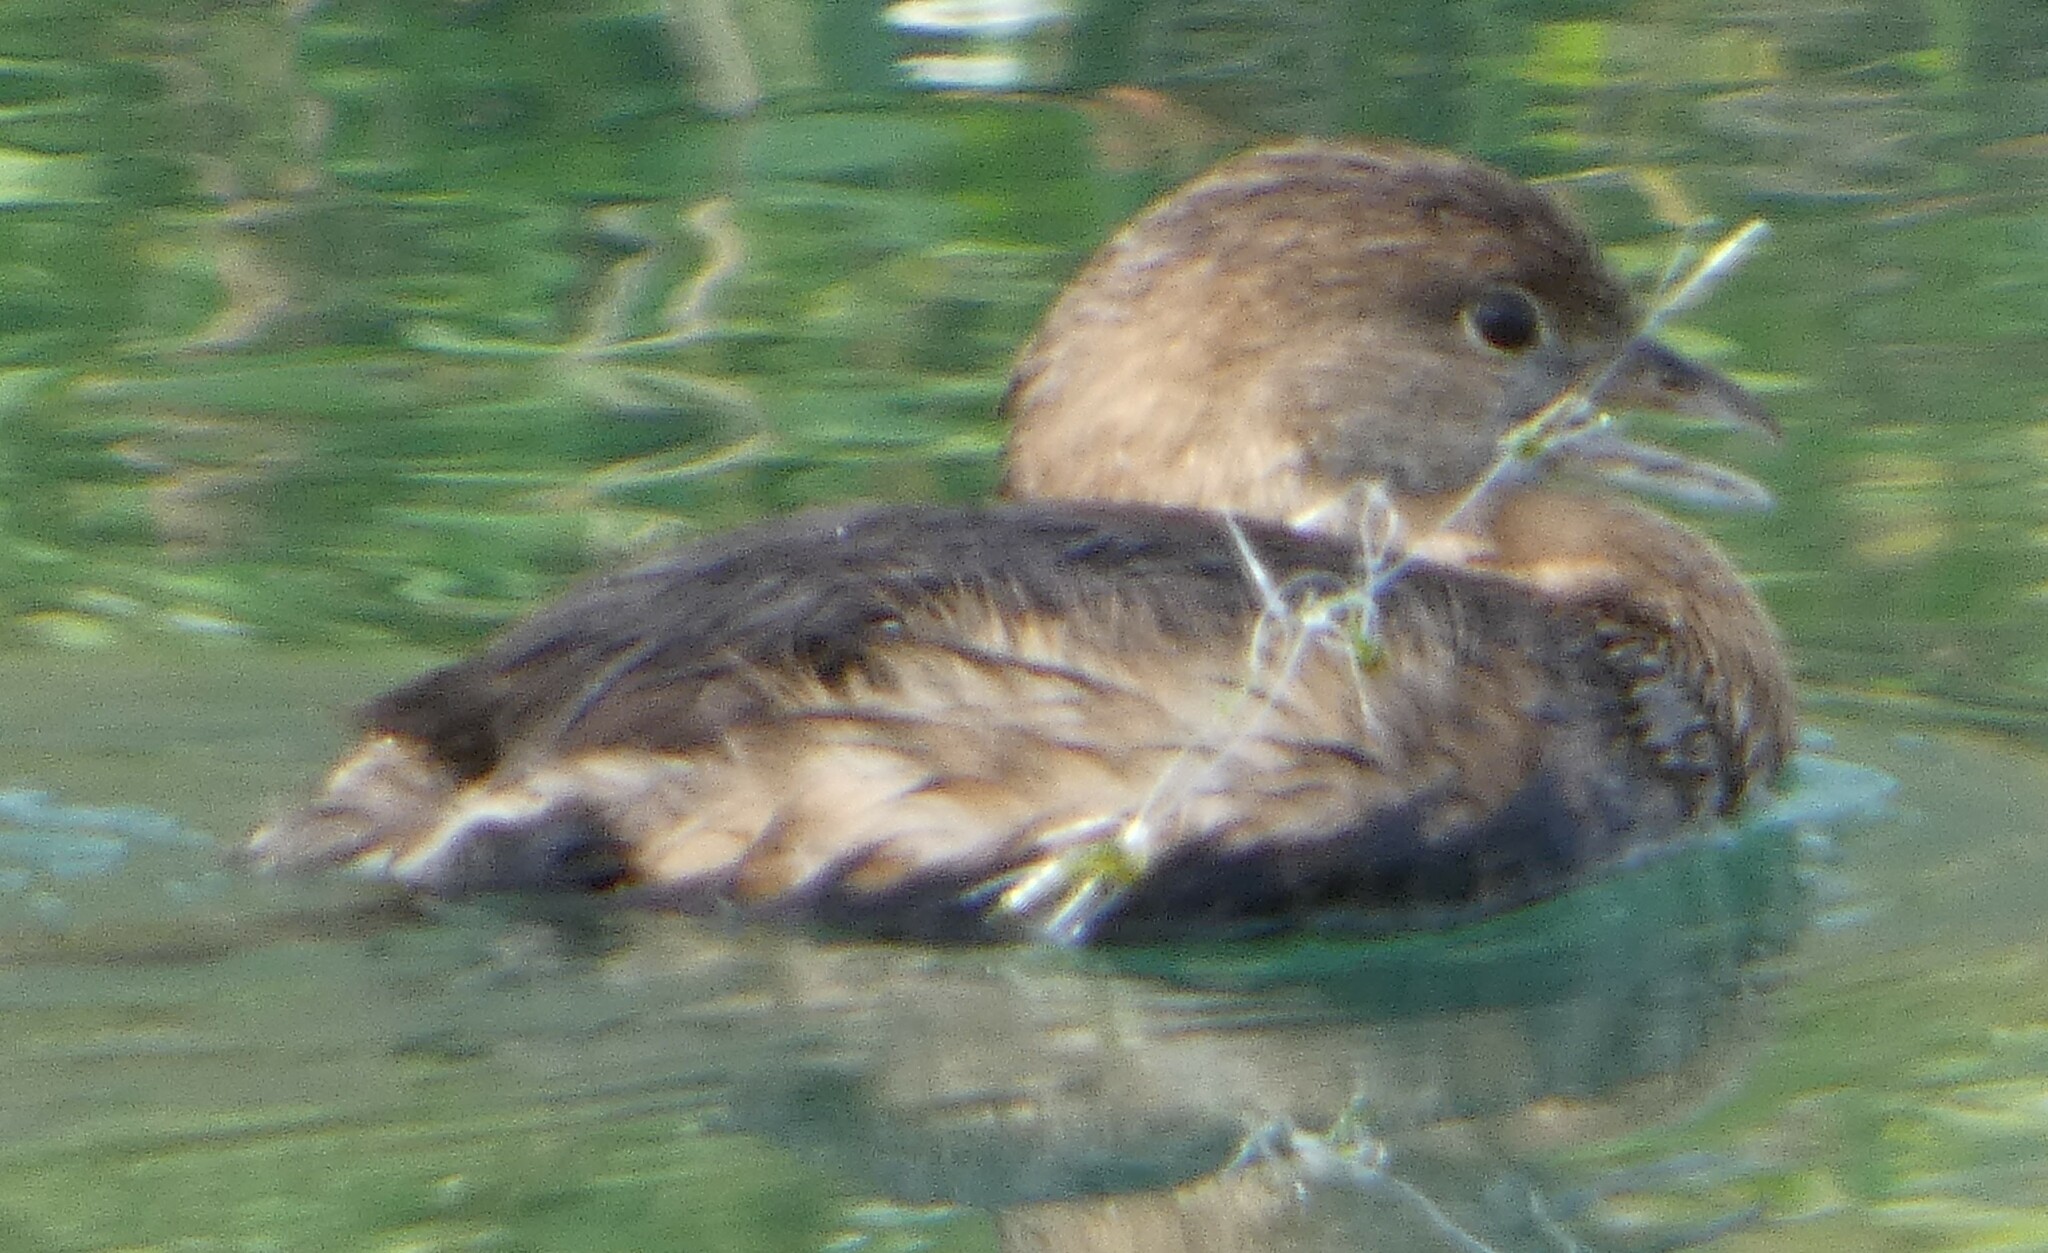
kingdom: Animalia
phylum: Chordata
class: Aves
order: Podicipediformes
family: Podicipedidae
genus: Podilymbus
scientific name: Podilymbus podiceps
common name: Pied-billed grebe
